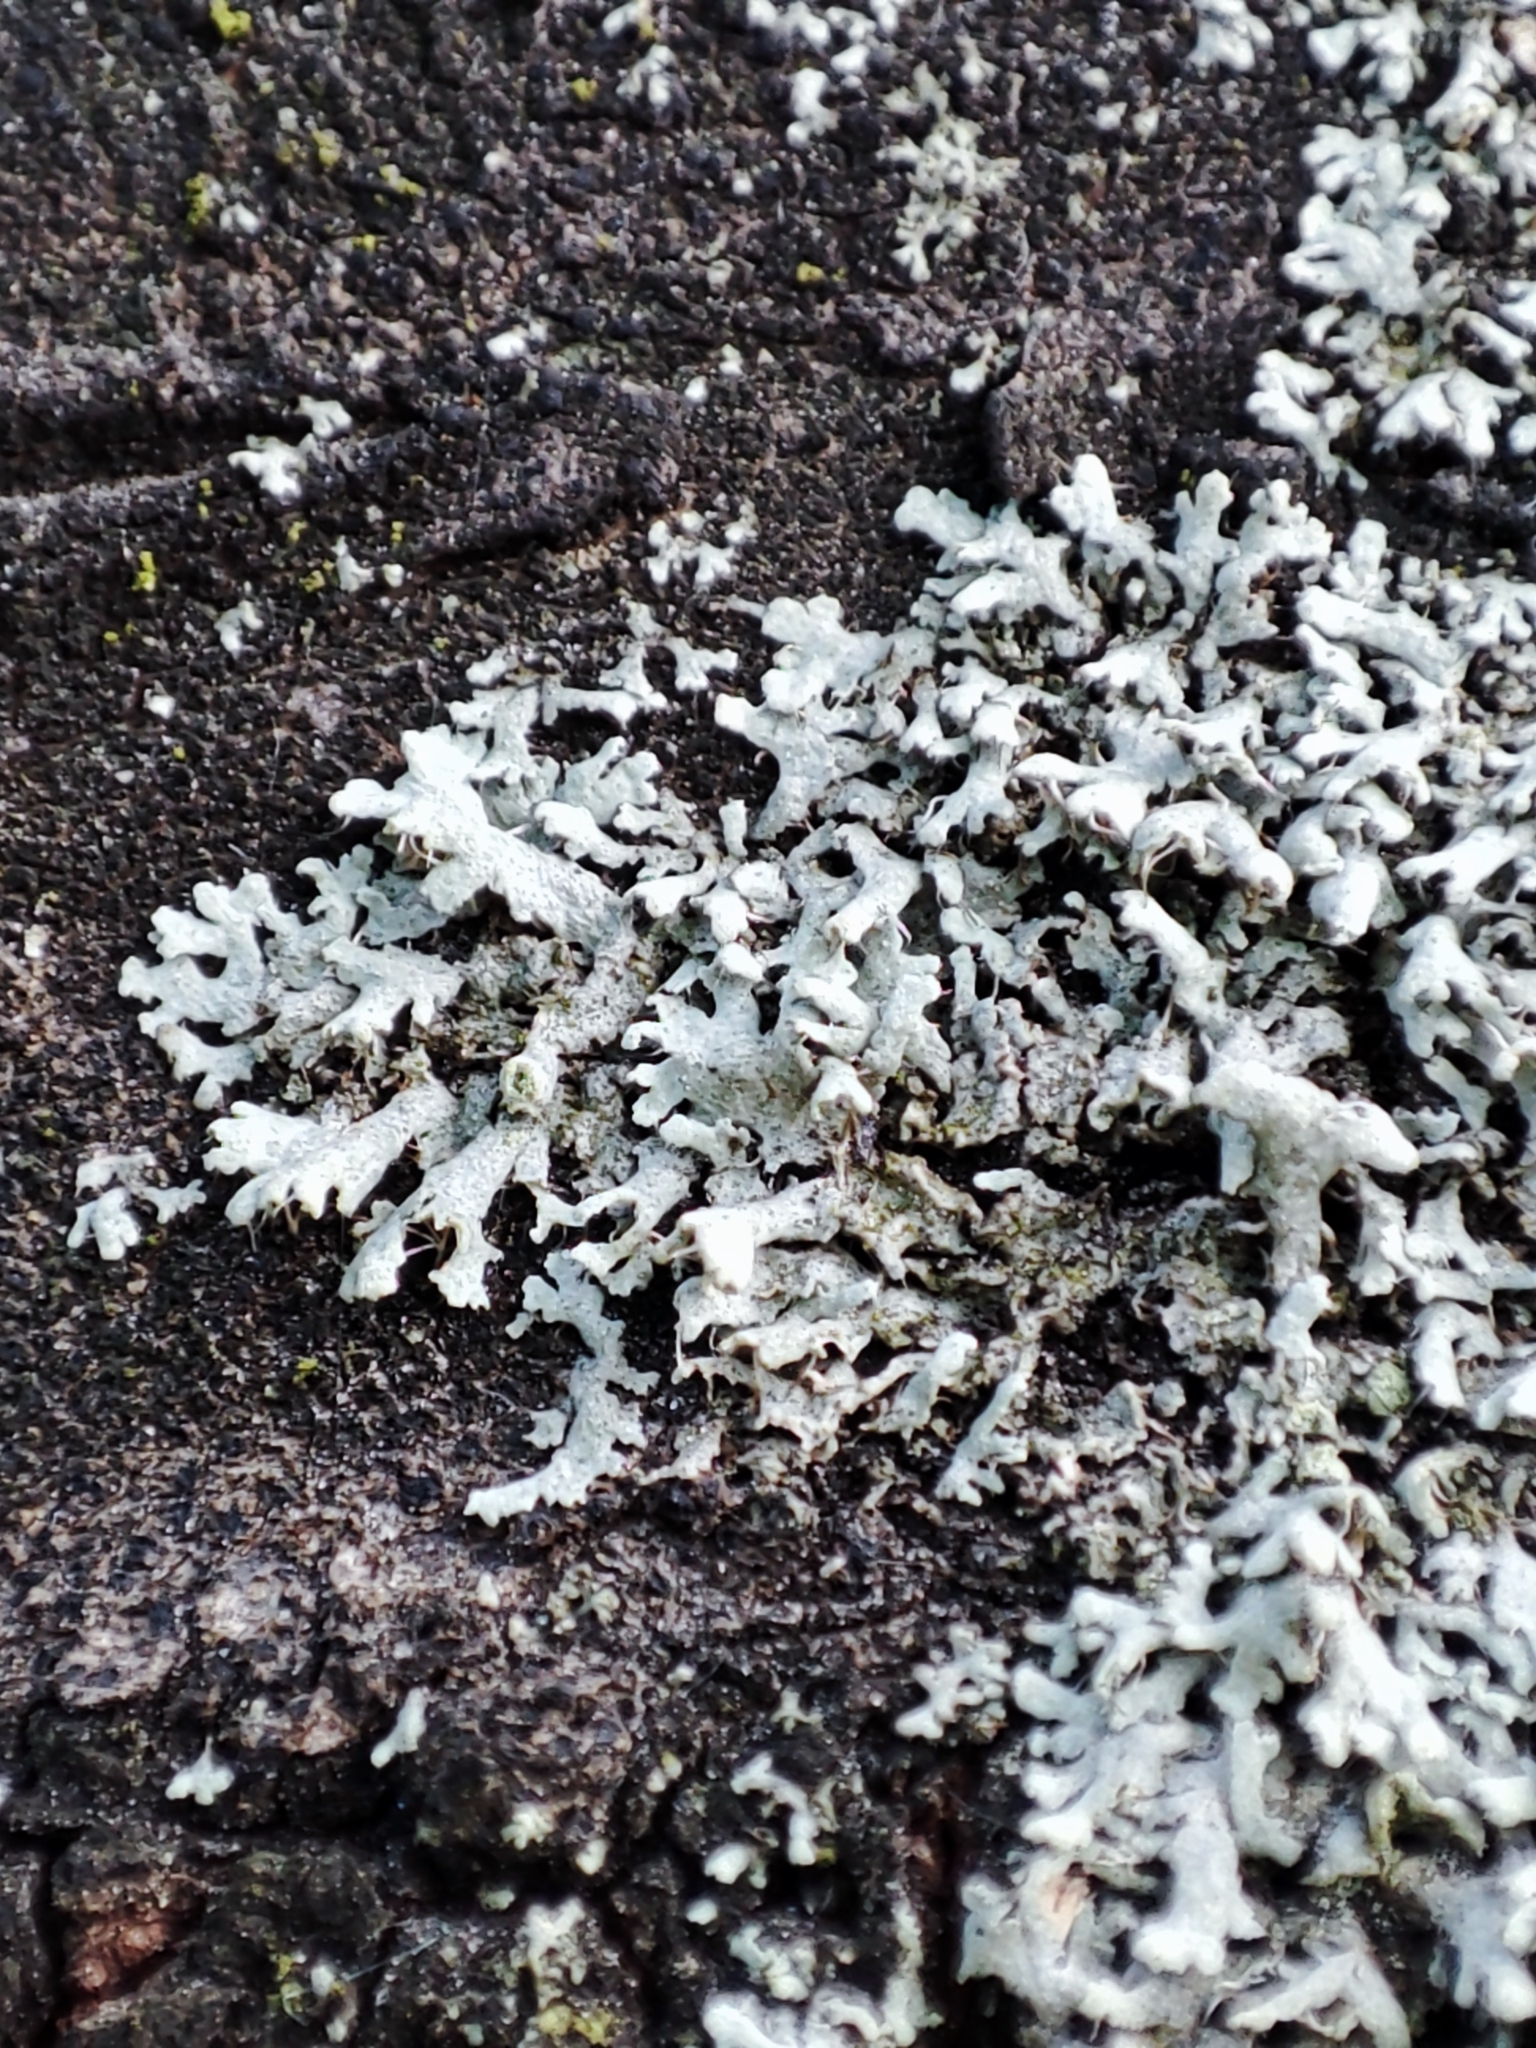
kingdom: Fungi
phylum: Ascomycota
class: Lecanoromycetes
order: Caliciales
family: Physciaceae
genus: Physcia
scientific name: Physcia adscendens
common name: Hooded rosette lichen
